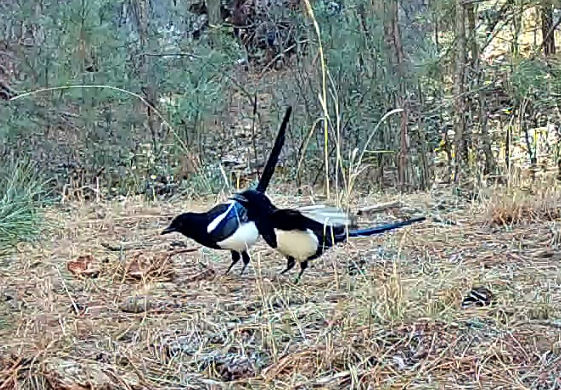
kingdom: Animalia
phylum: Chordata
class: Aves
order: Passeriformes
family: Corvidae
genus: Pica
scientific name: Pica hudsonia
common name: Black-billed magpie
